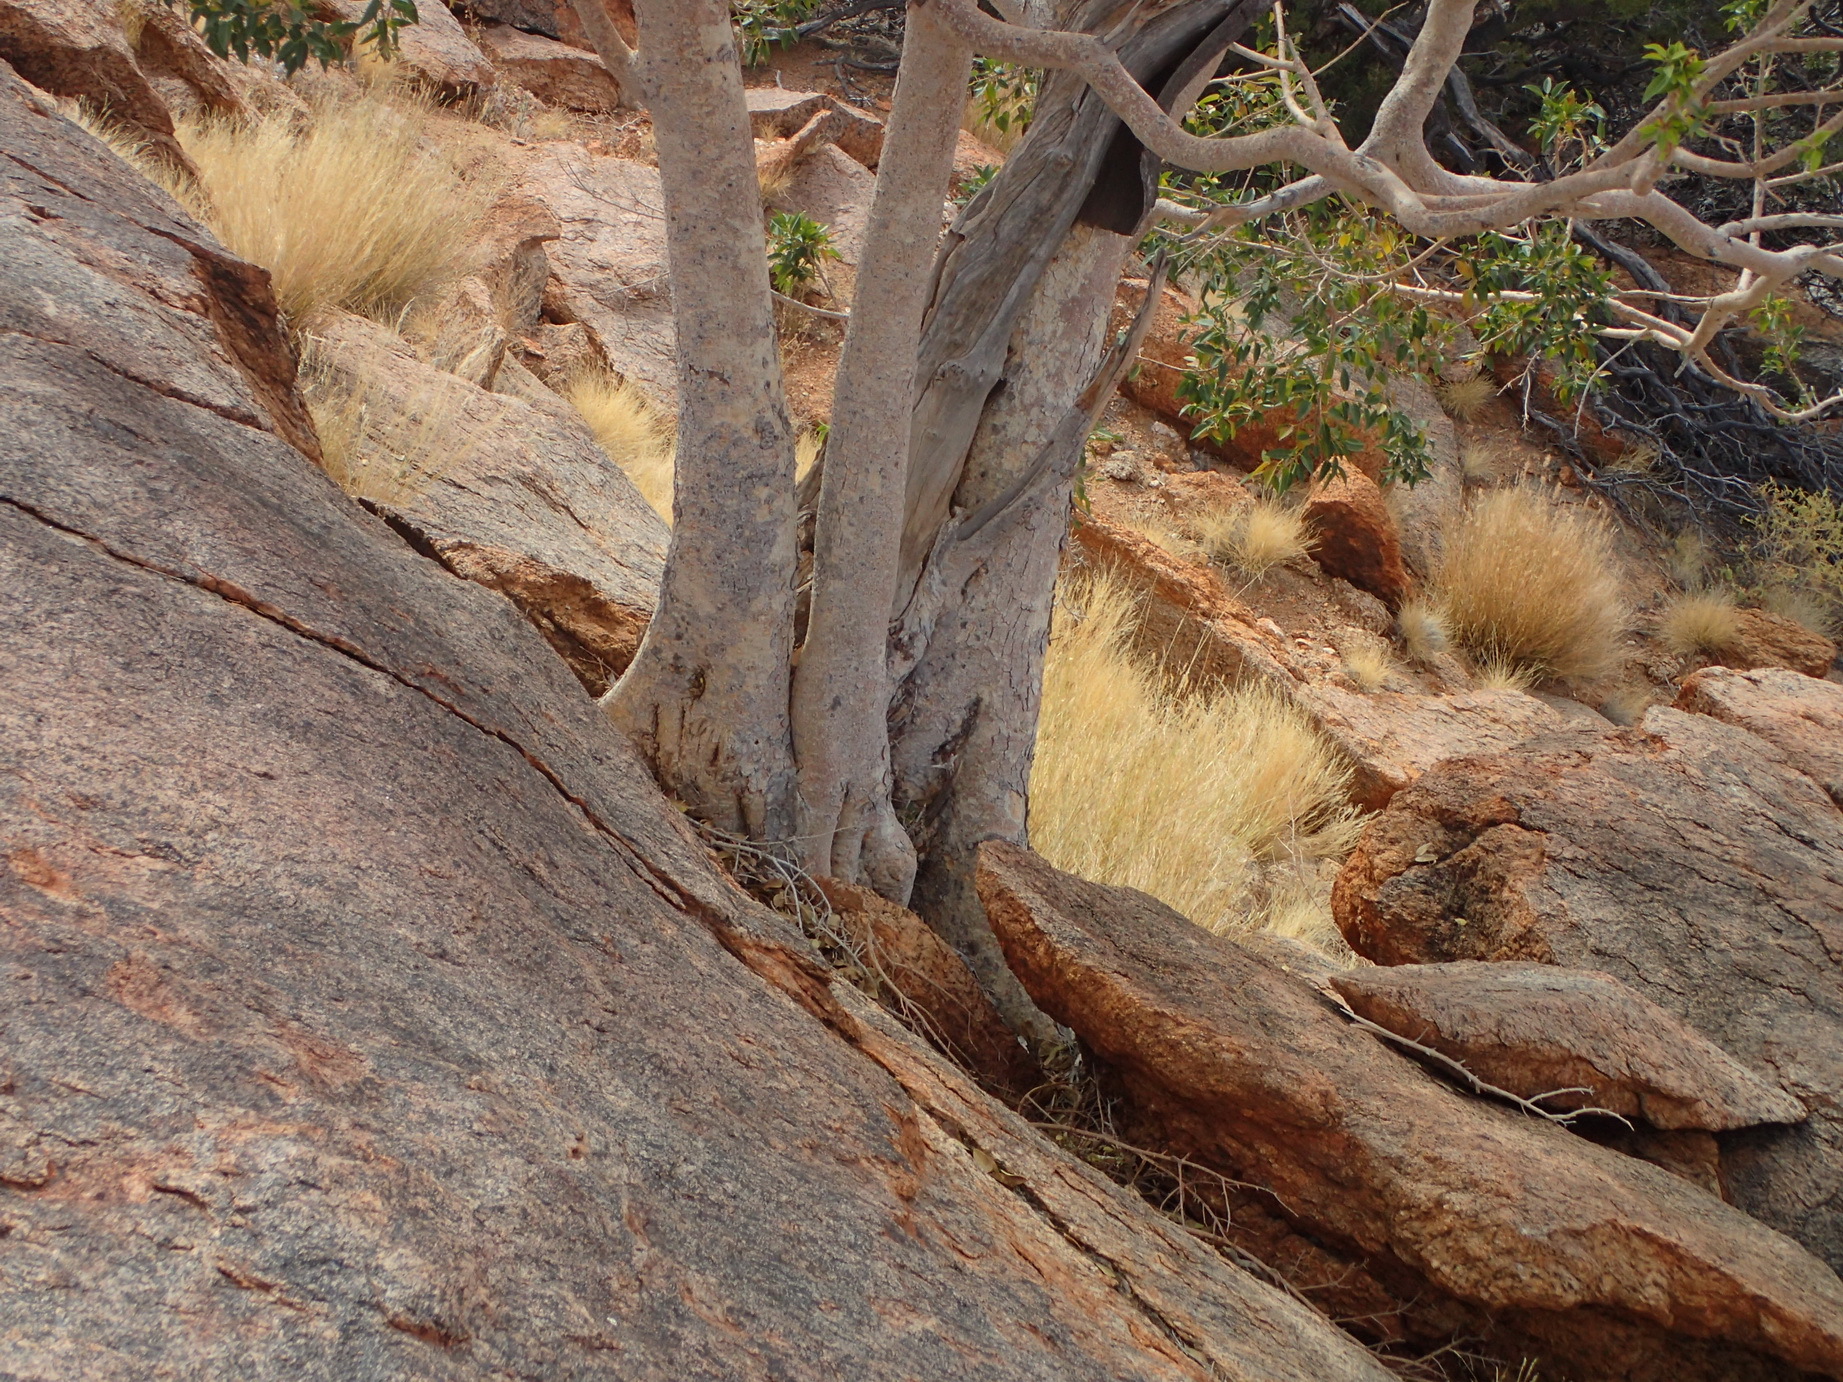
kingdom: Plantae
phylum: Tracheophyta
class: Magnoliopsida
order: Rosales
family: Moraceae
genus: Ficus
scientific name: Ficus cordata
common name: Namaqua rock fig
